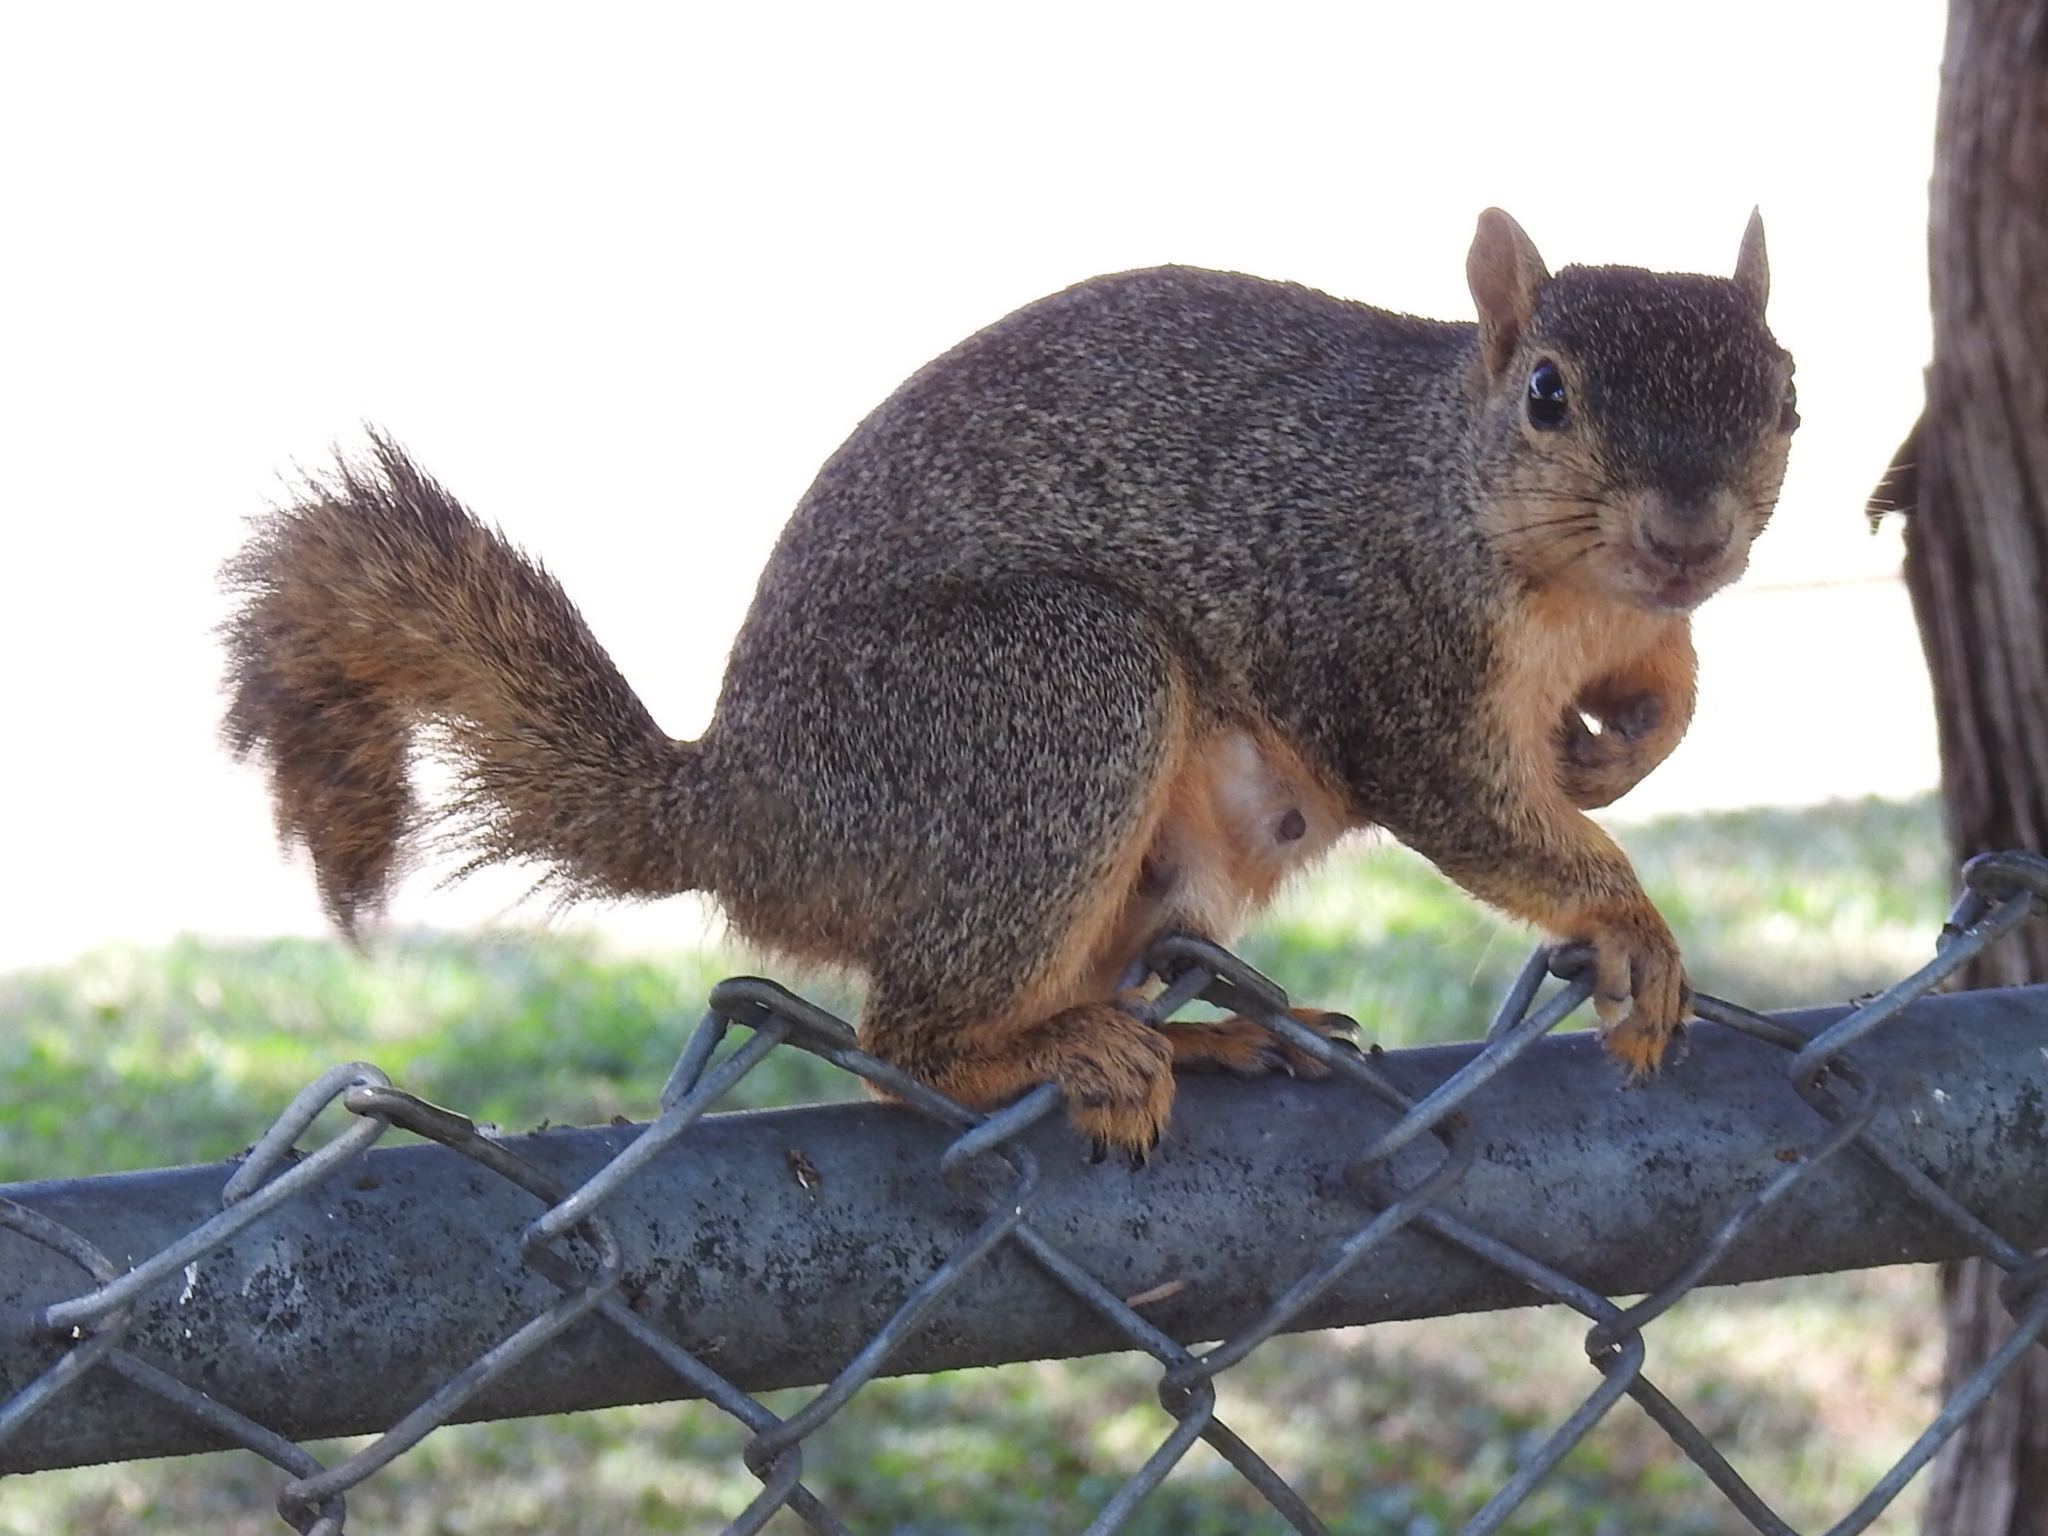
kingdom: Animalia
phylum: Chordata
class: Mammalia
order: Rodentia
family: Sciuridae
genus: Sciurus
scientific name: Sciurus niger
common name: Fox squirrel
